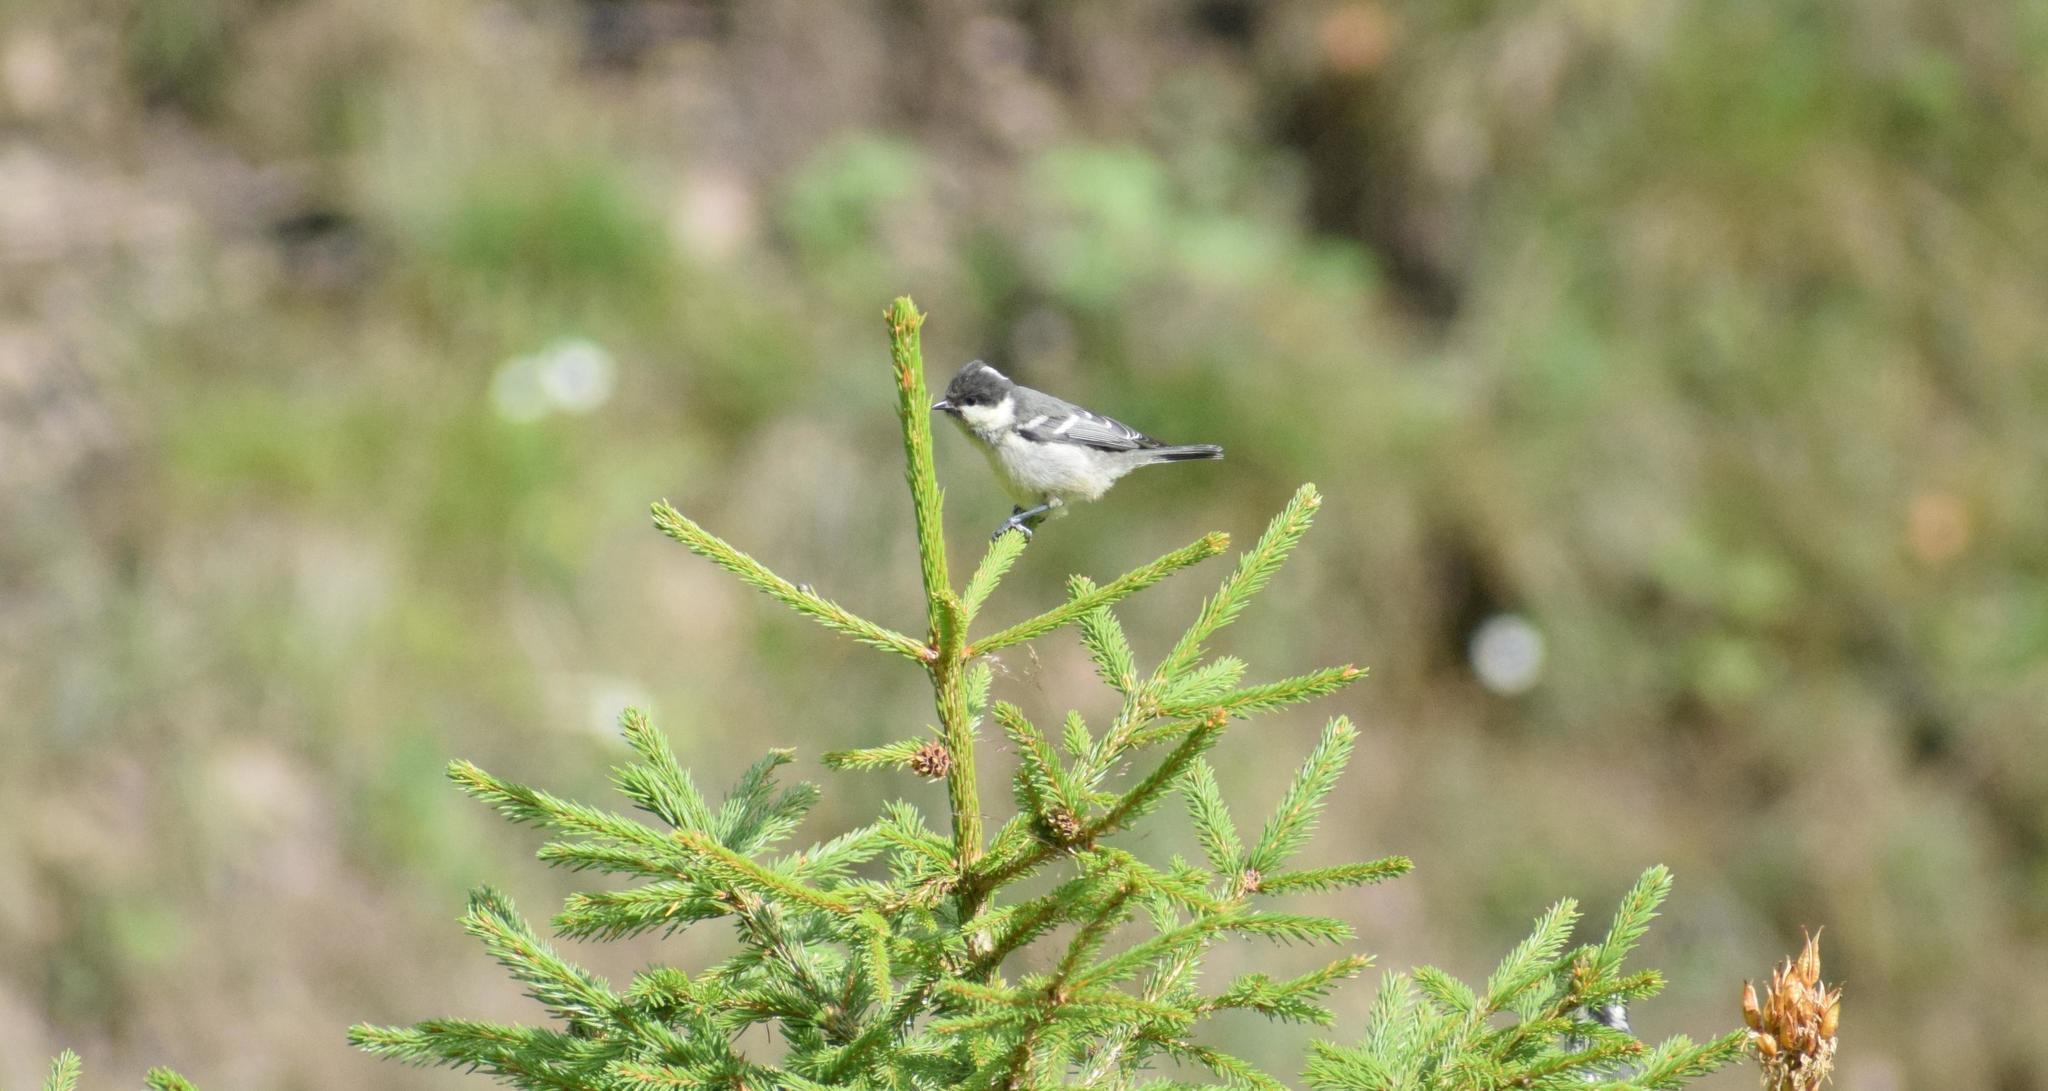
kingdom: Animalia
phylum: Chordata
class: Aves
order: Passeriformes
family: Paridae
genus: Periparus
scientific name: Periparus ater
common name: Coal tit
